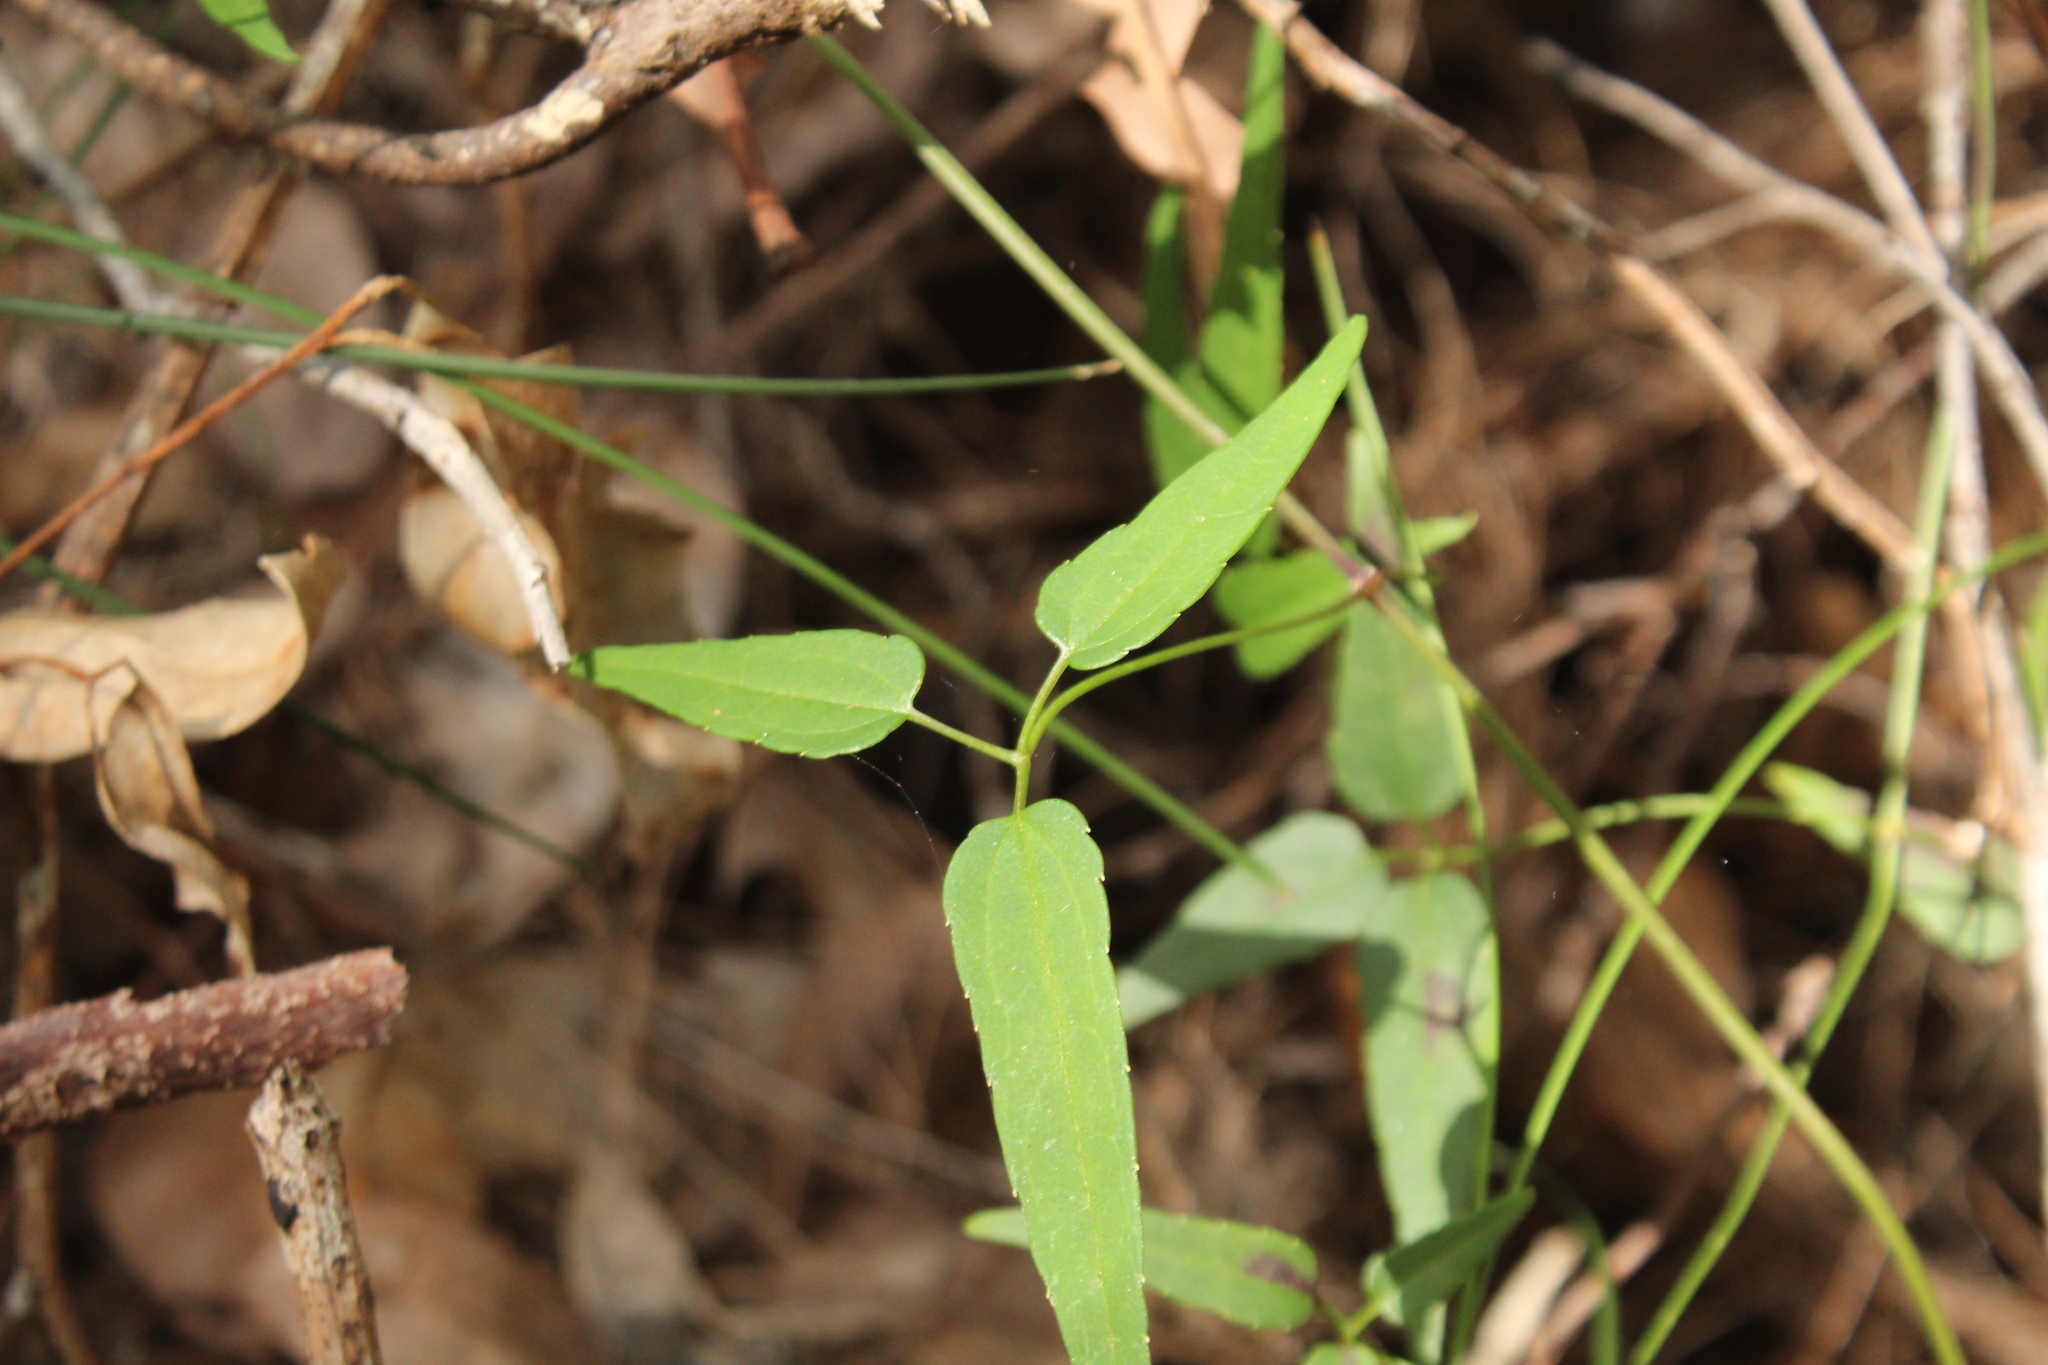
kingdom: Plantae
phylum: Tracheophyta
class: Magnoliopsida
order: Ranunculales
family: Ranunculaceae
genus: Clematis
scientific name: Clematis pubescens
